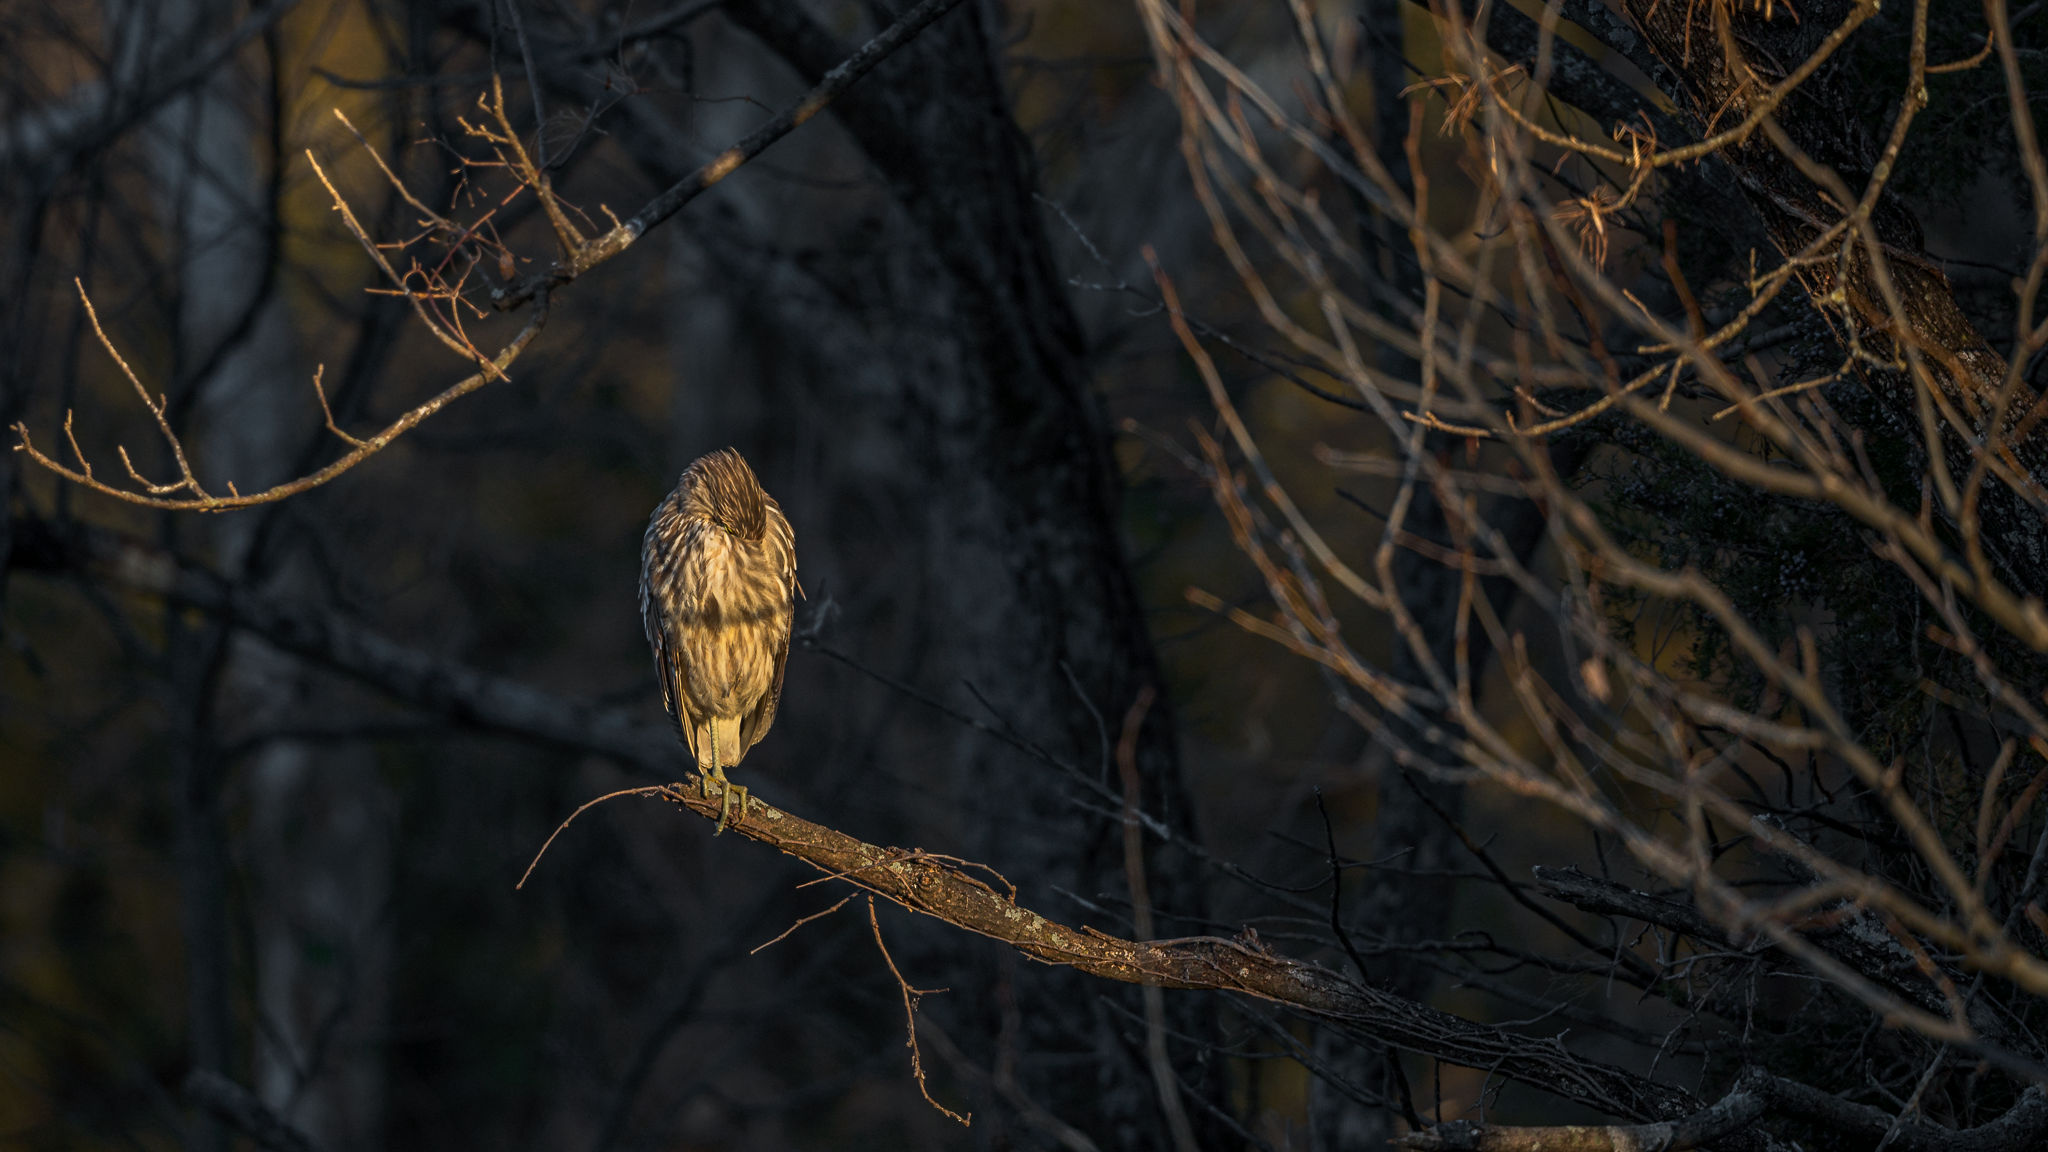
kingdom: Animalia
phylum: Chordata
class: Aves
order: Pelecaniformes
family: Ardeidae
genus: Nycticorax
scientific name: Nycticorax nycticorax
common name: Black-crowned night heron
